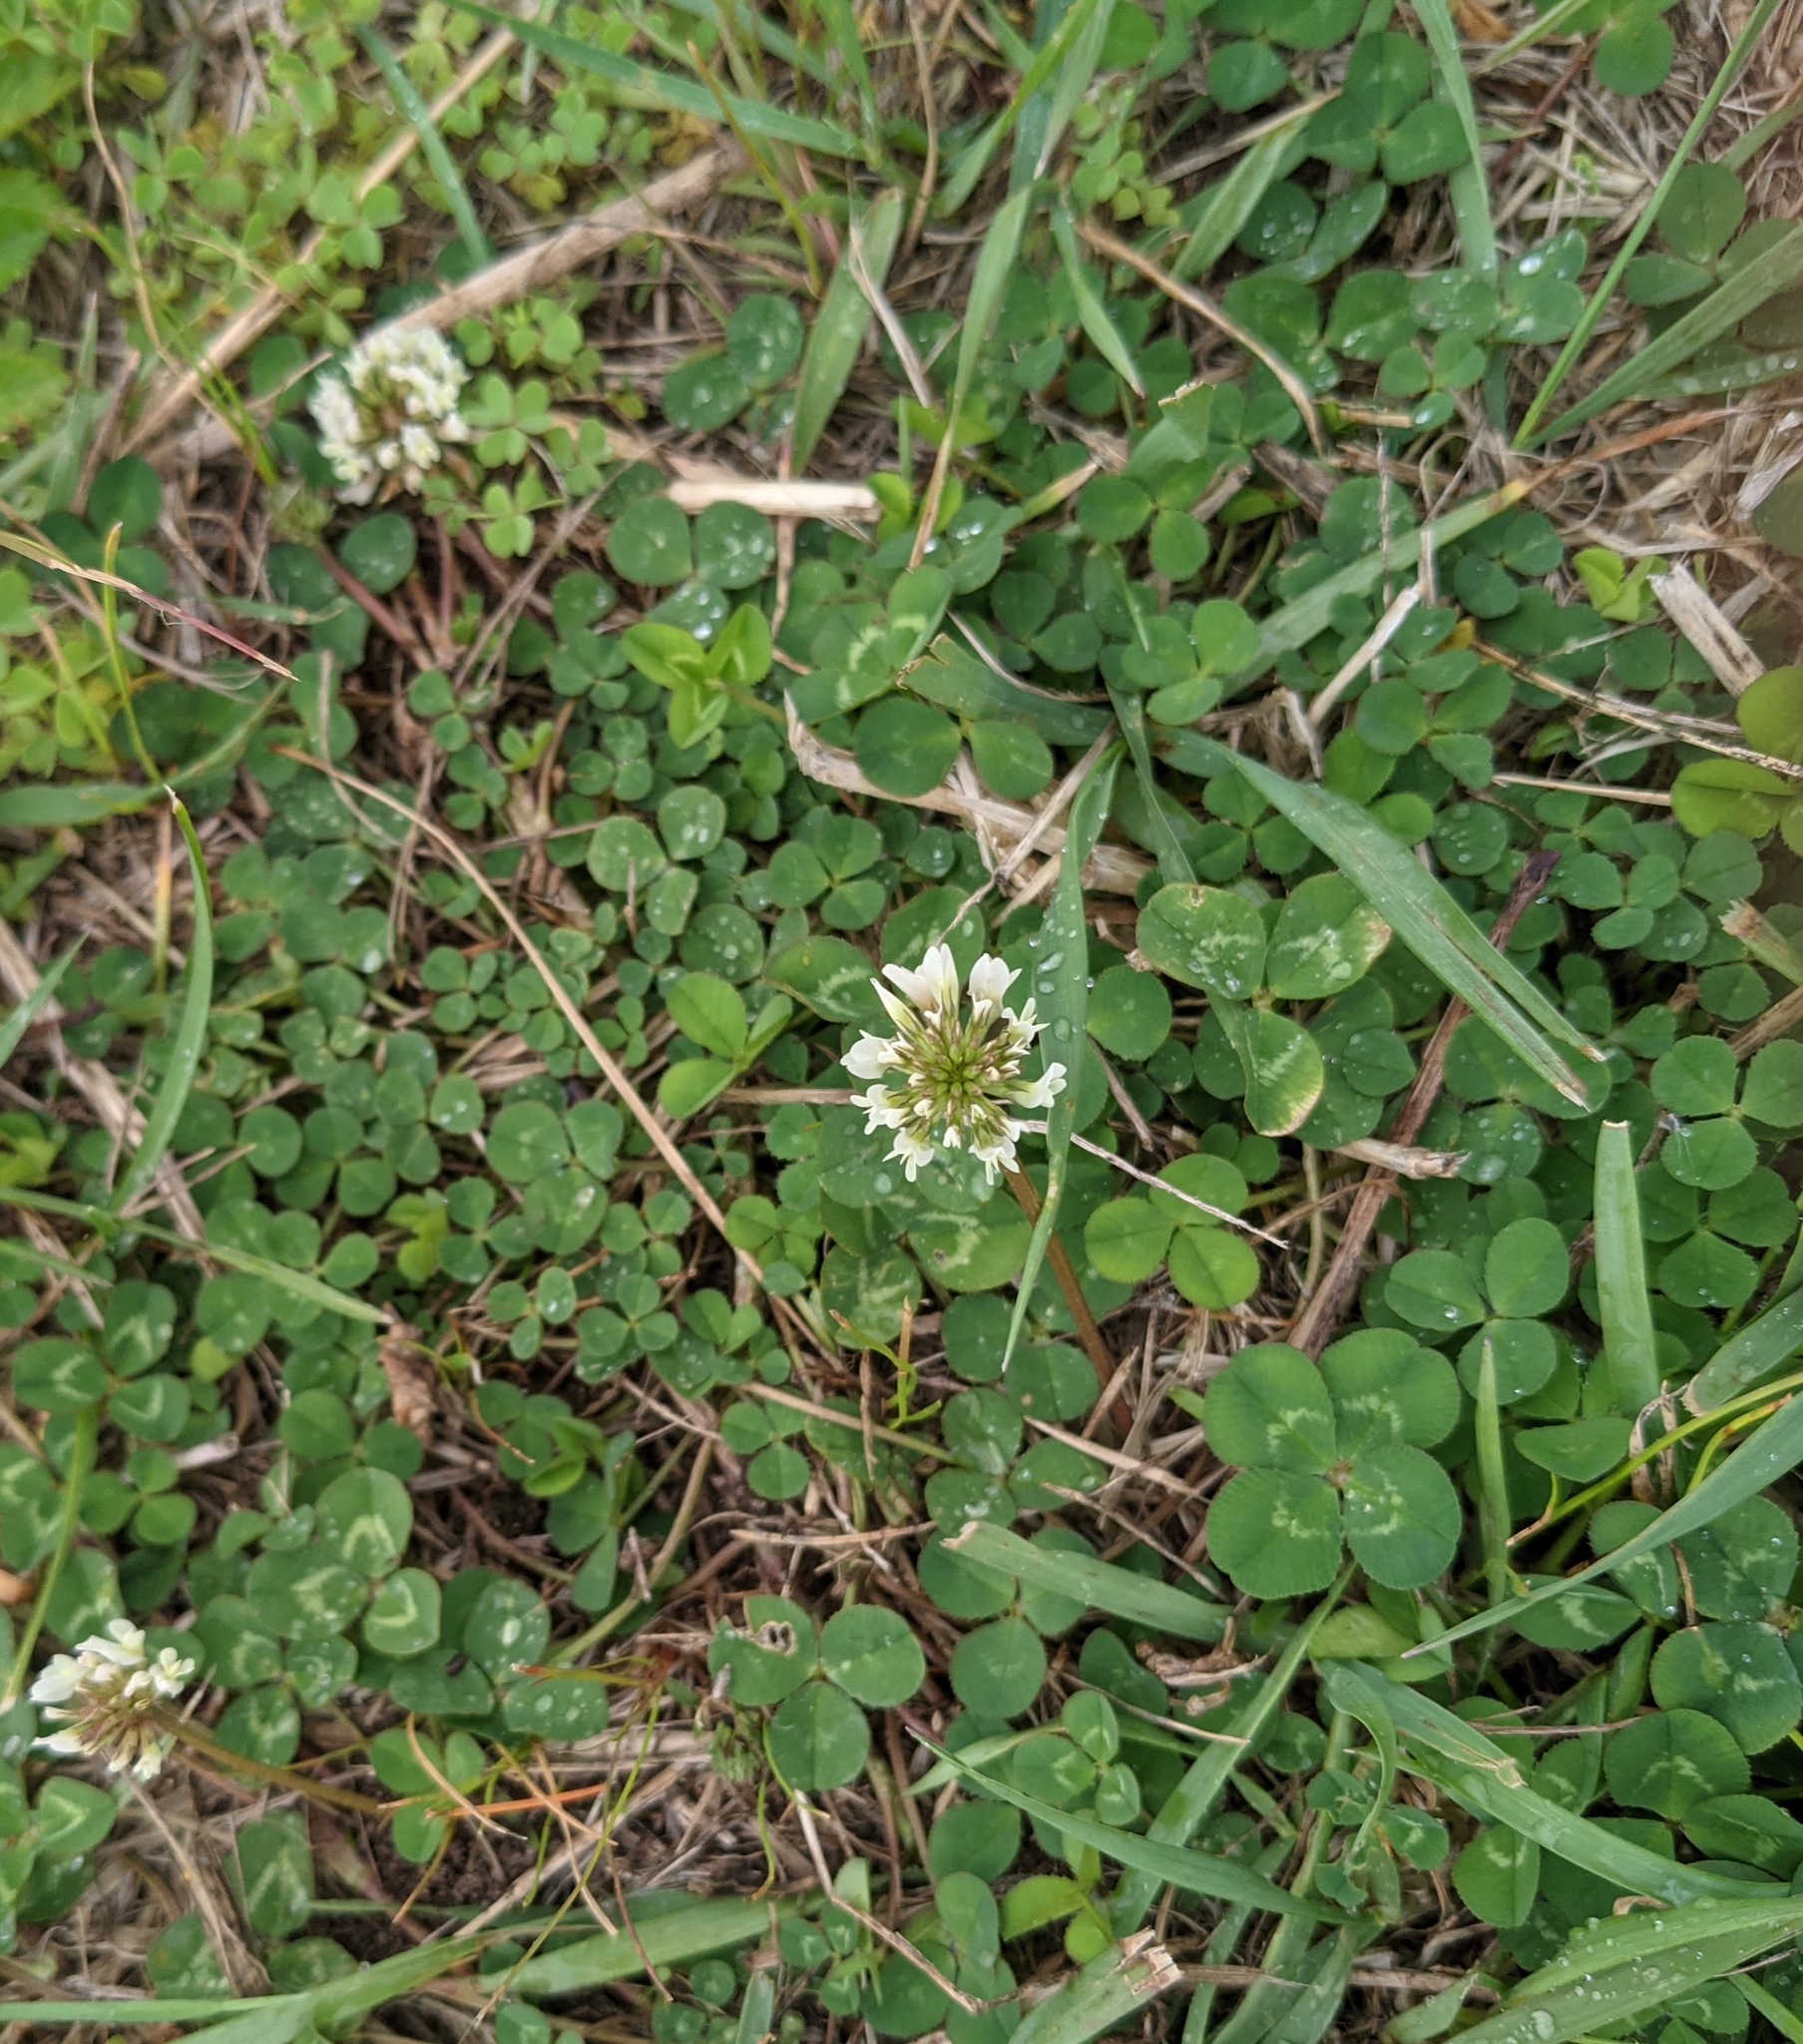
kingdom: Plantae
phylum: Tracheophyta
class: Magnoliopsida
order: Fabales
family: Fabaceae
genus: Trifolium
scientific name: Trifolium repens
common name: White clover
